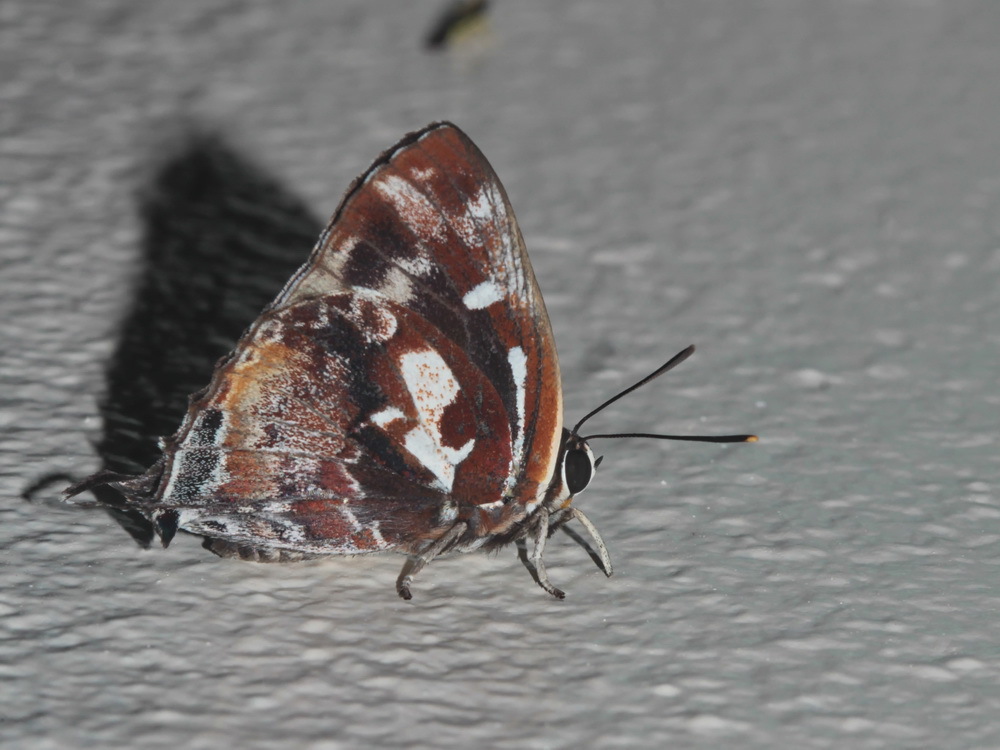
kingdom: Animalia
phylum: Arthropoda
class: Insecta
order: Lepidoptera
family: Lycaenidae
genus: Iraota
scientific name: Iraota timoleon
